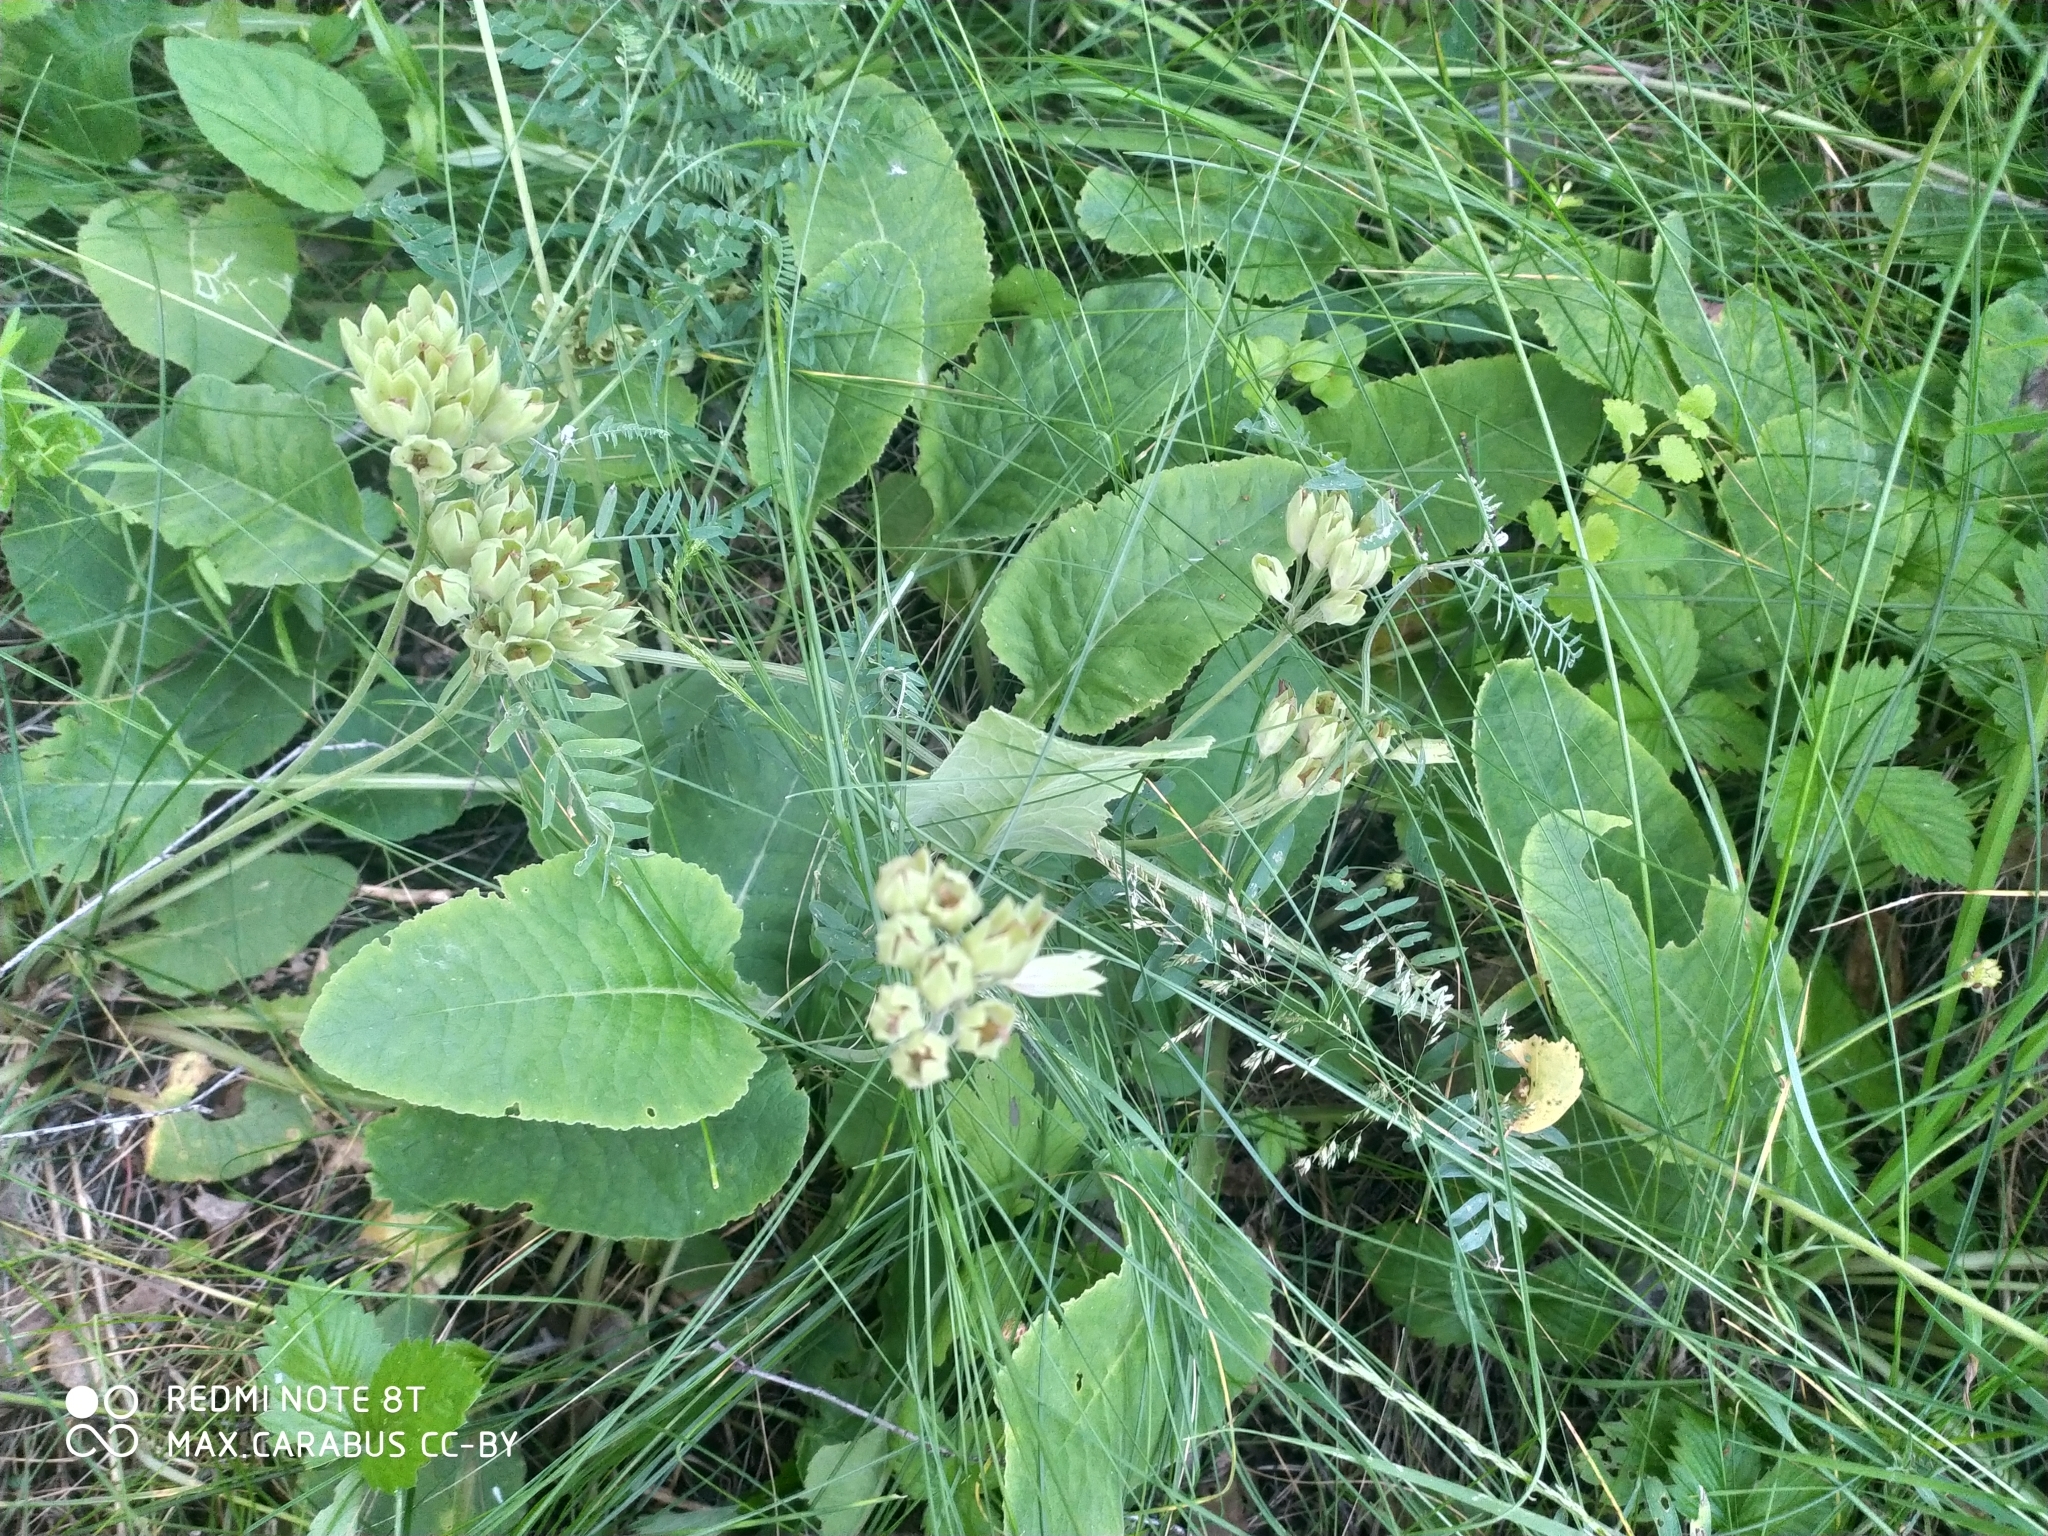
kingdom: Plantae
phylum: Tracheophyta
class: Magnoliopsida
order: Ericales
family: Primulaceae
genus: Primula
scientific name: Primula veris
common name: Cowslip
